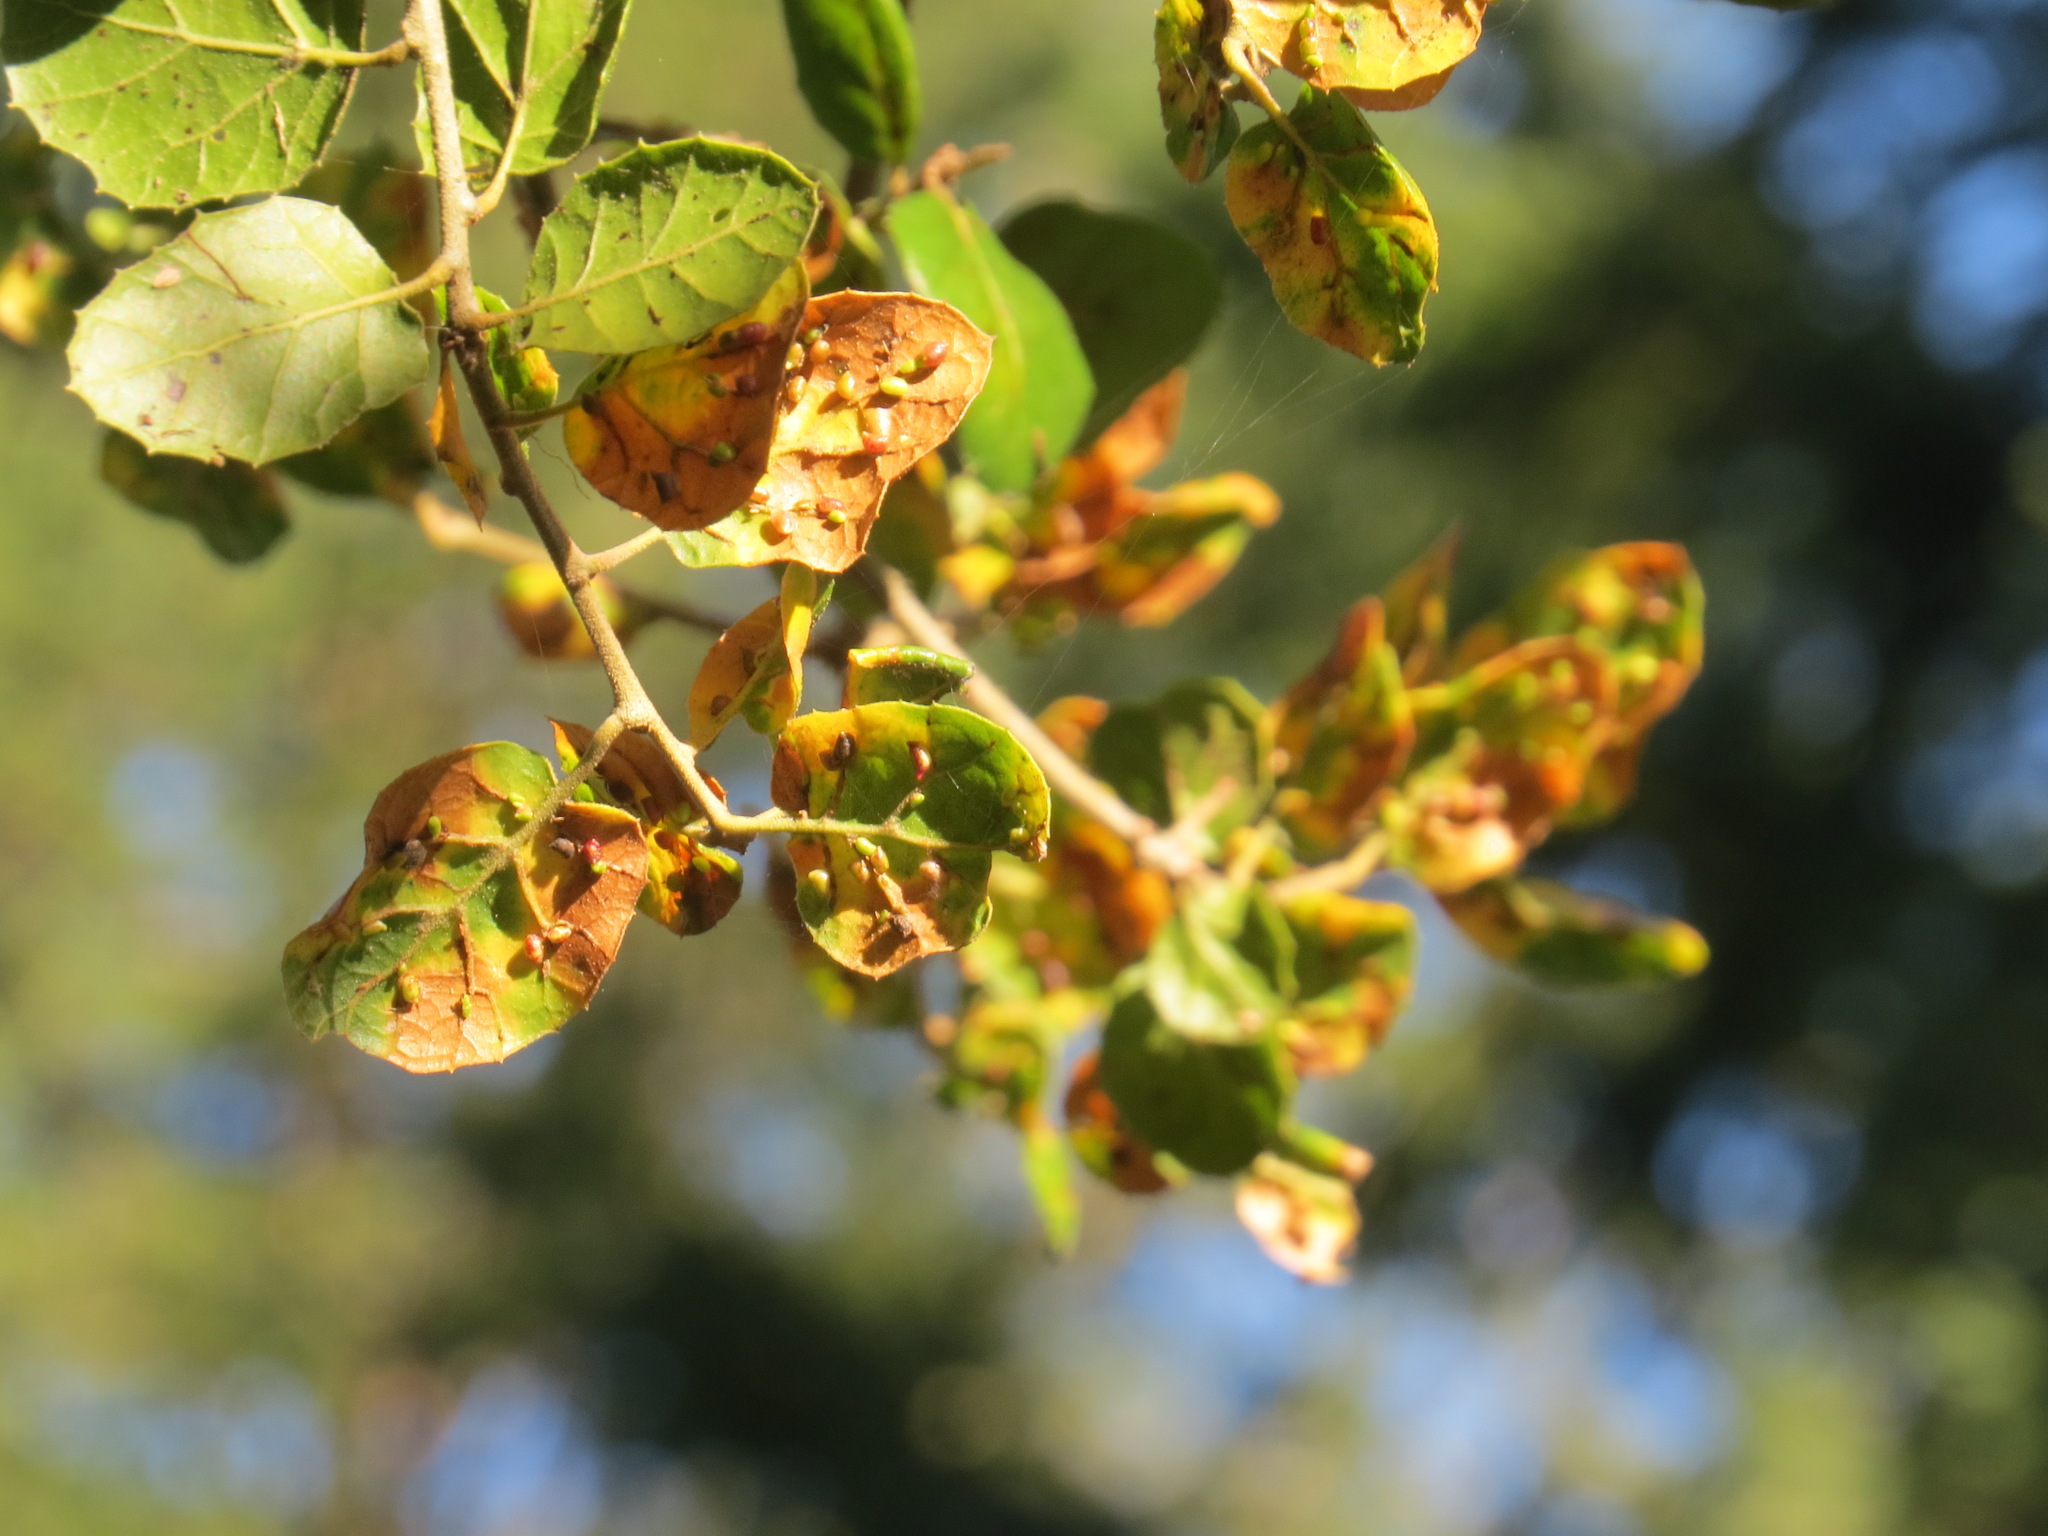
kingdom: Animalia
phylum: Arthropoda
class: Insecta
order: Hymenoptera
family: Cynipidae
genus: Dryocosmus
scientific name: Dryocosmus
